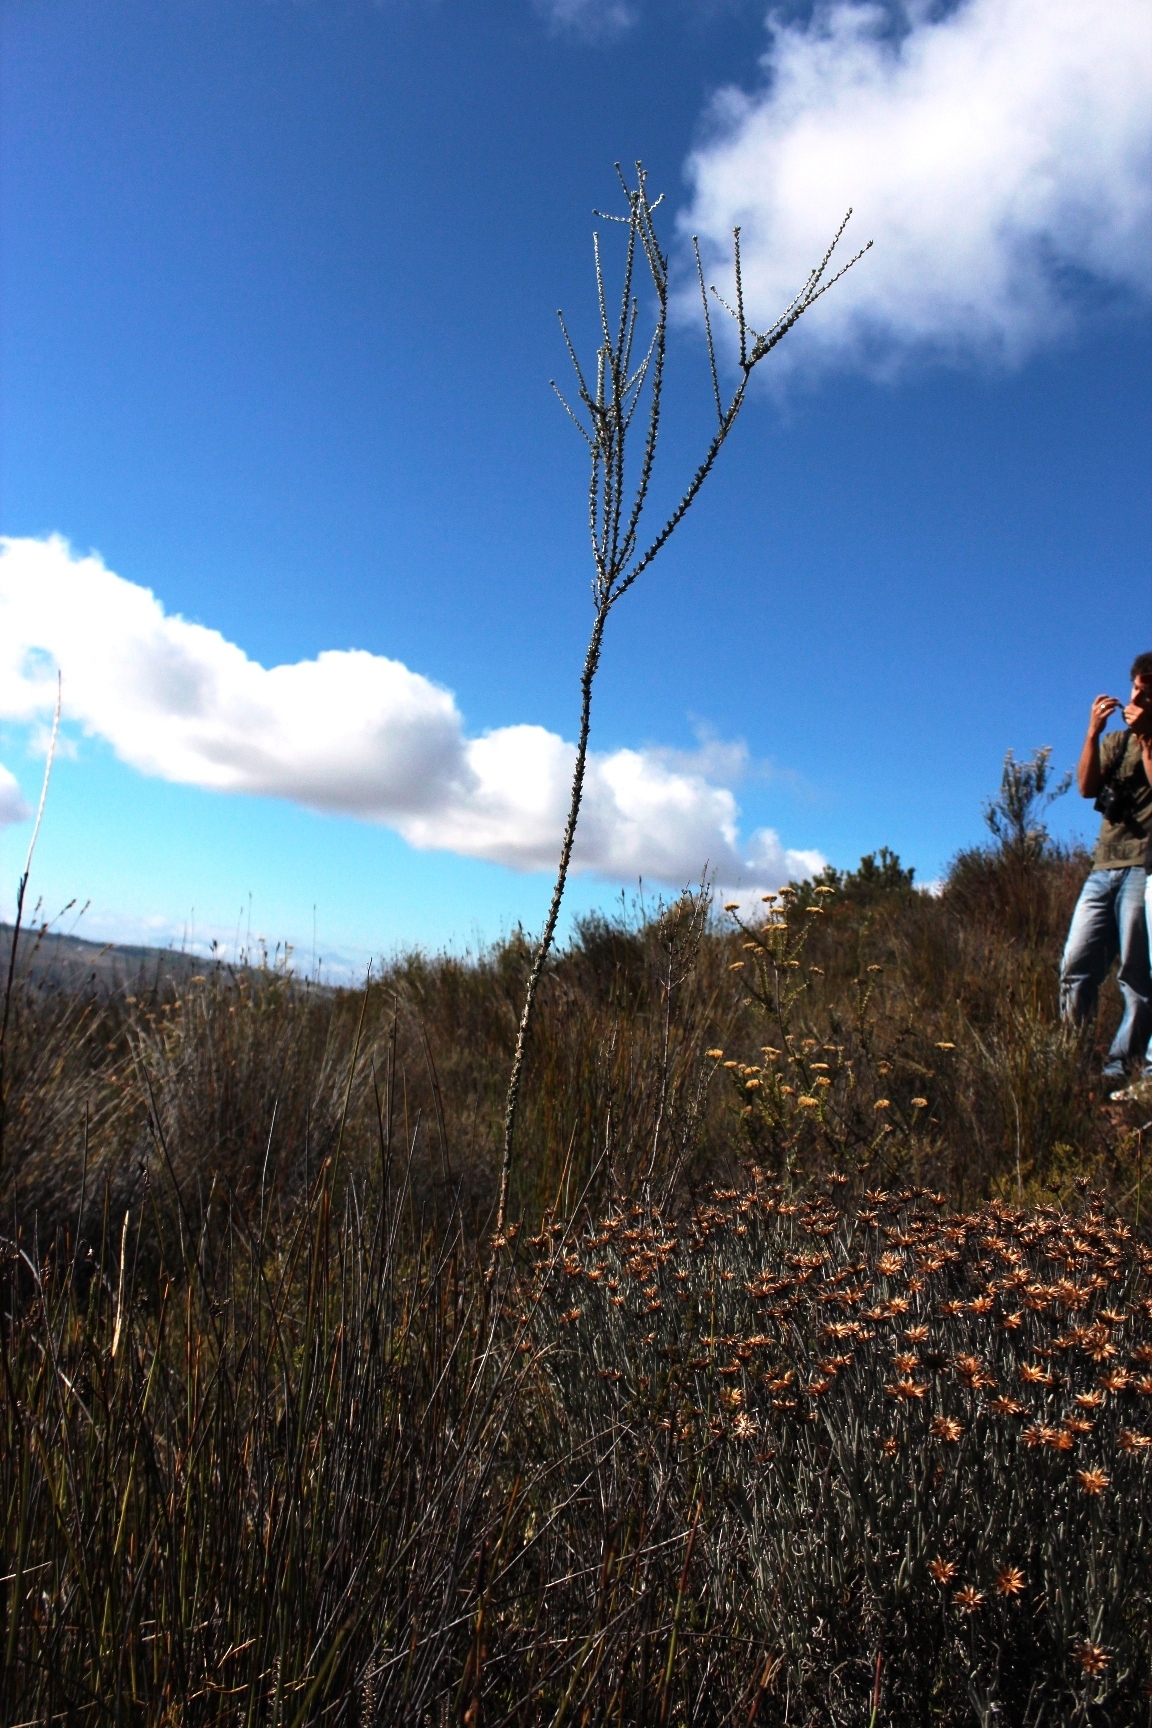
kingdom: Plantae
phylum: Tracheophyta
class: Magnoliopsida
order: Fabales
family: Fabaceae
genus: Aspalathus
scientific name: Aspalathus altissima
